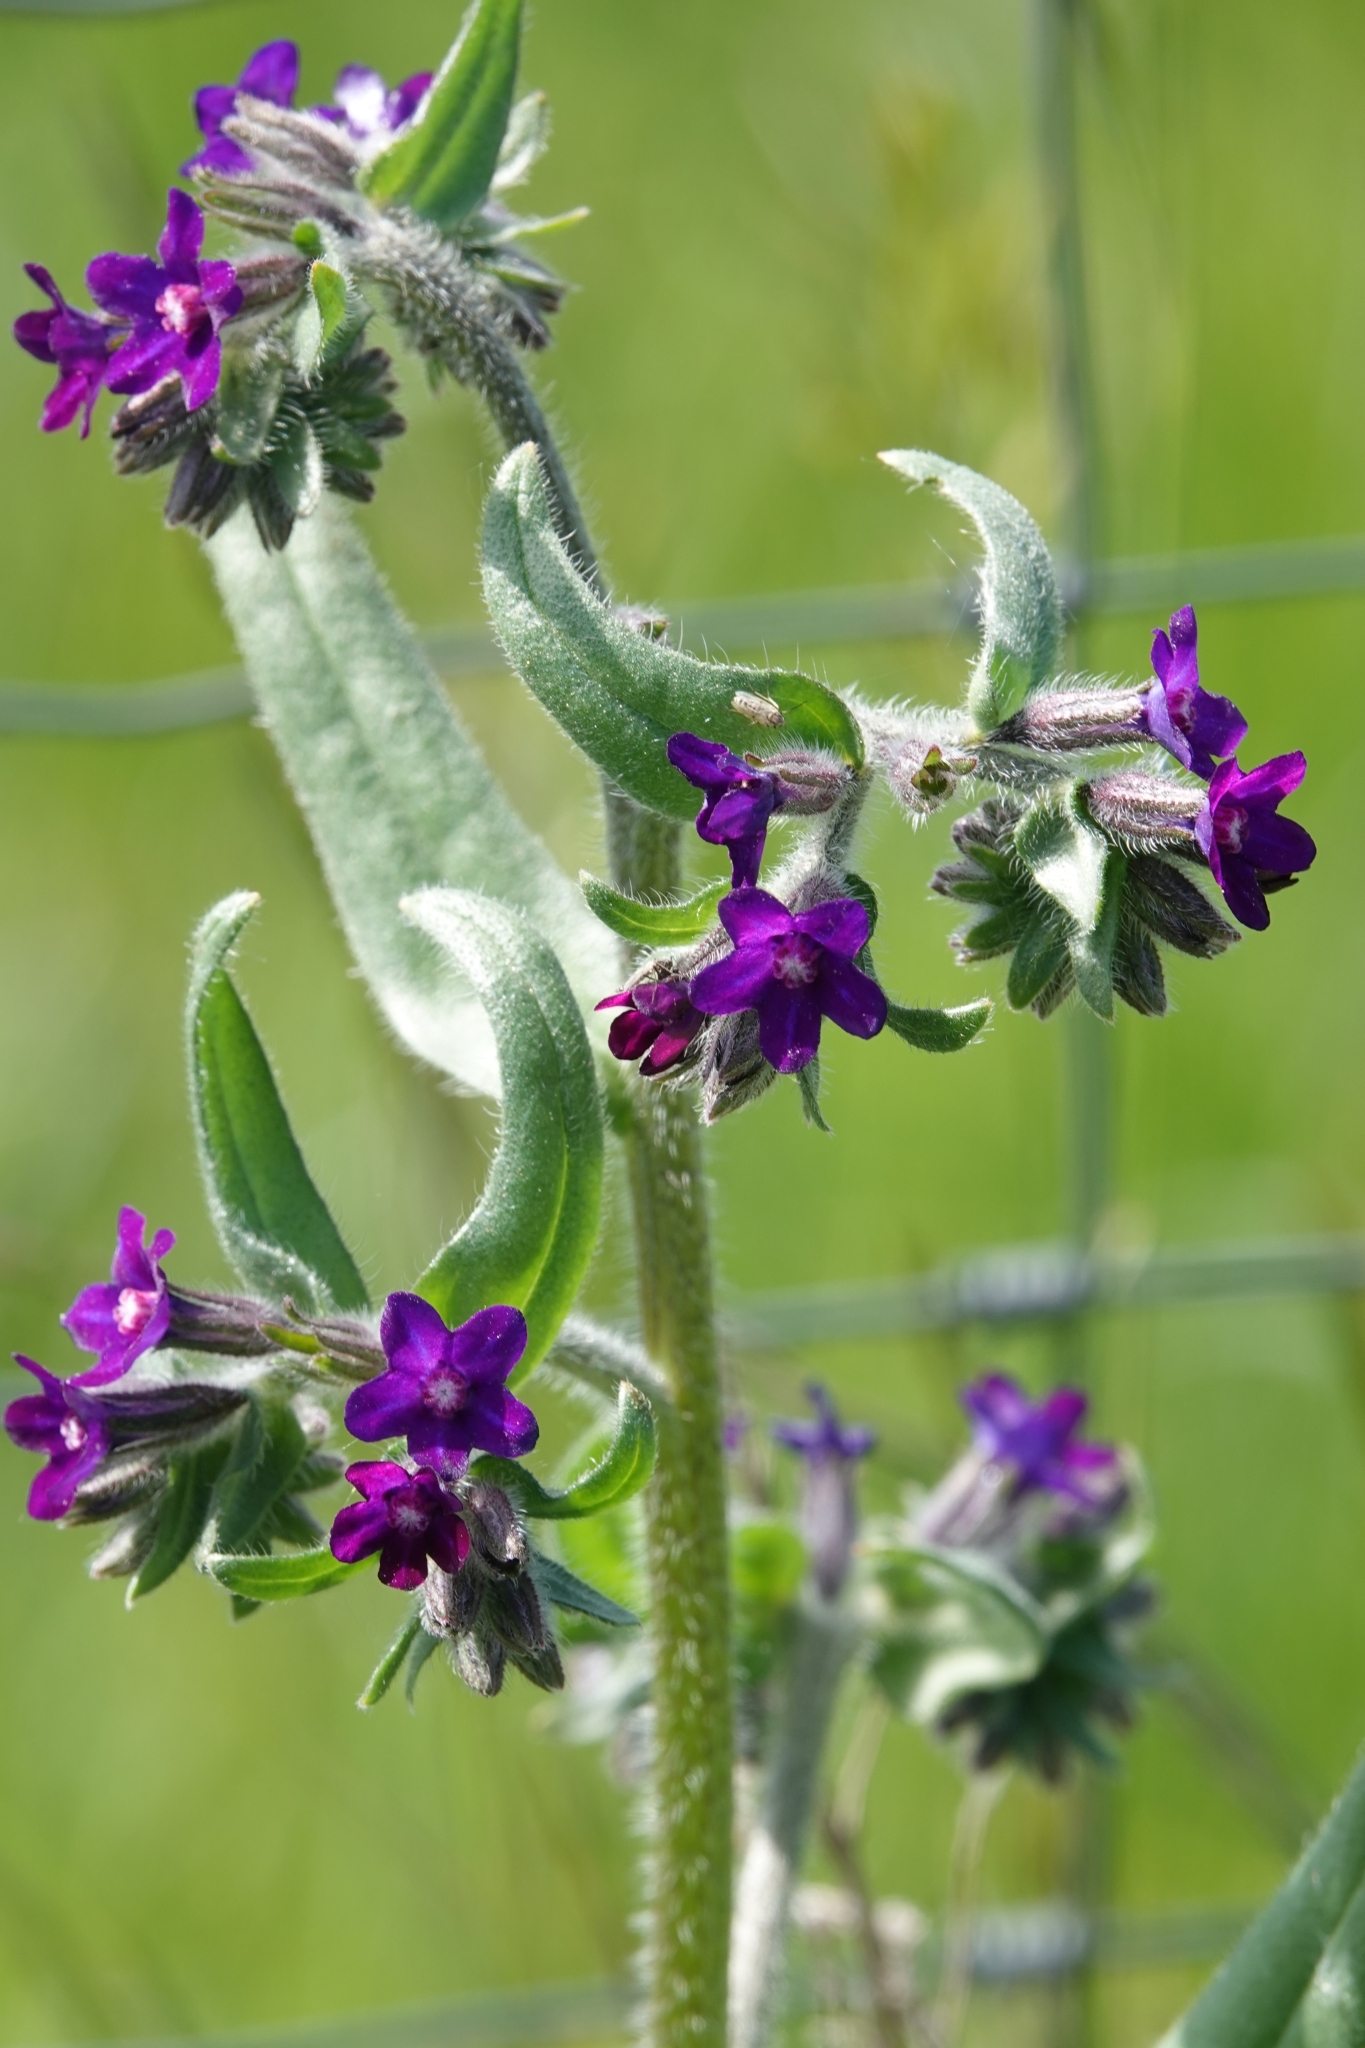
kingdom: Plantae
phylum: Tracheophyta
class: Magnoliopsida
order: Boraginales
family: Boraginaceae
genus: Anchusa
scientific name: Anchusa officinalis
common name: Alkanet
